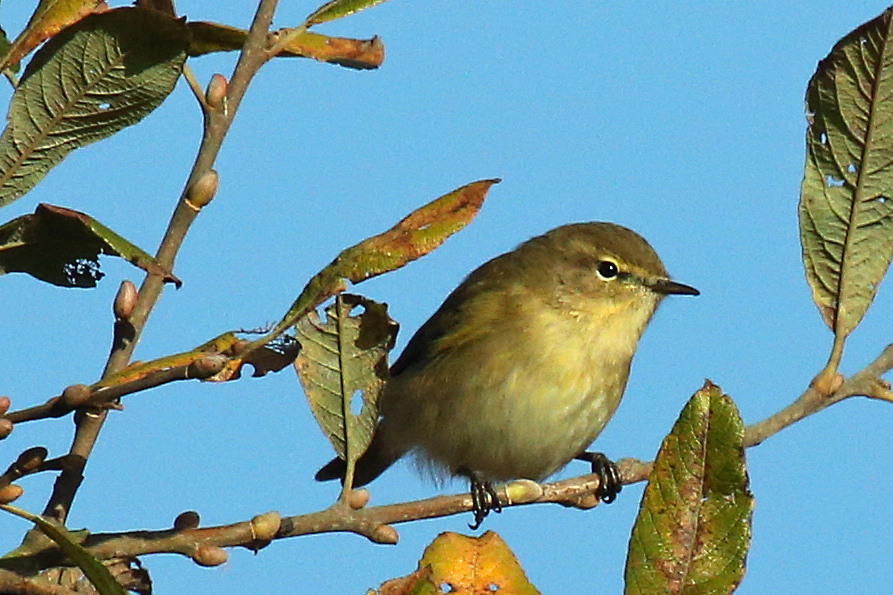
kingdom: Animalia
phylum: Chordata
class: Aves
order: Passeriformes
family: Phylloscopidae
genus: Phylloscopus
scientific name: Phylloscopus collybita
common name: Common chiffchaff
